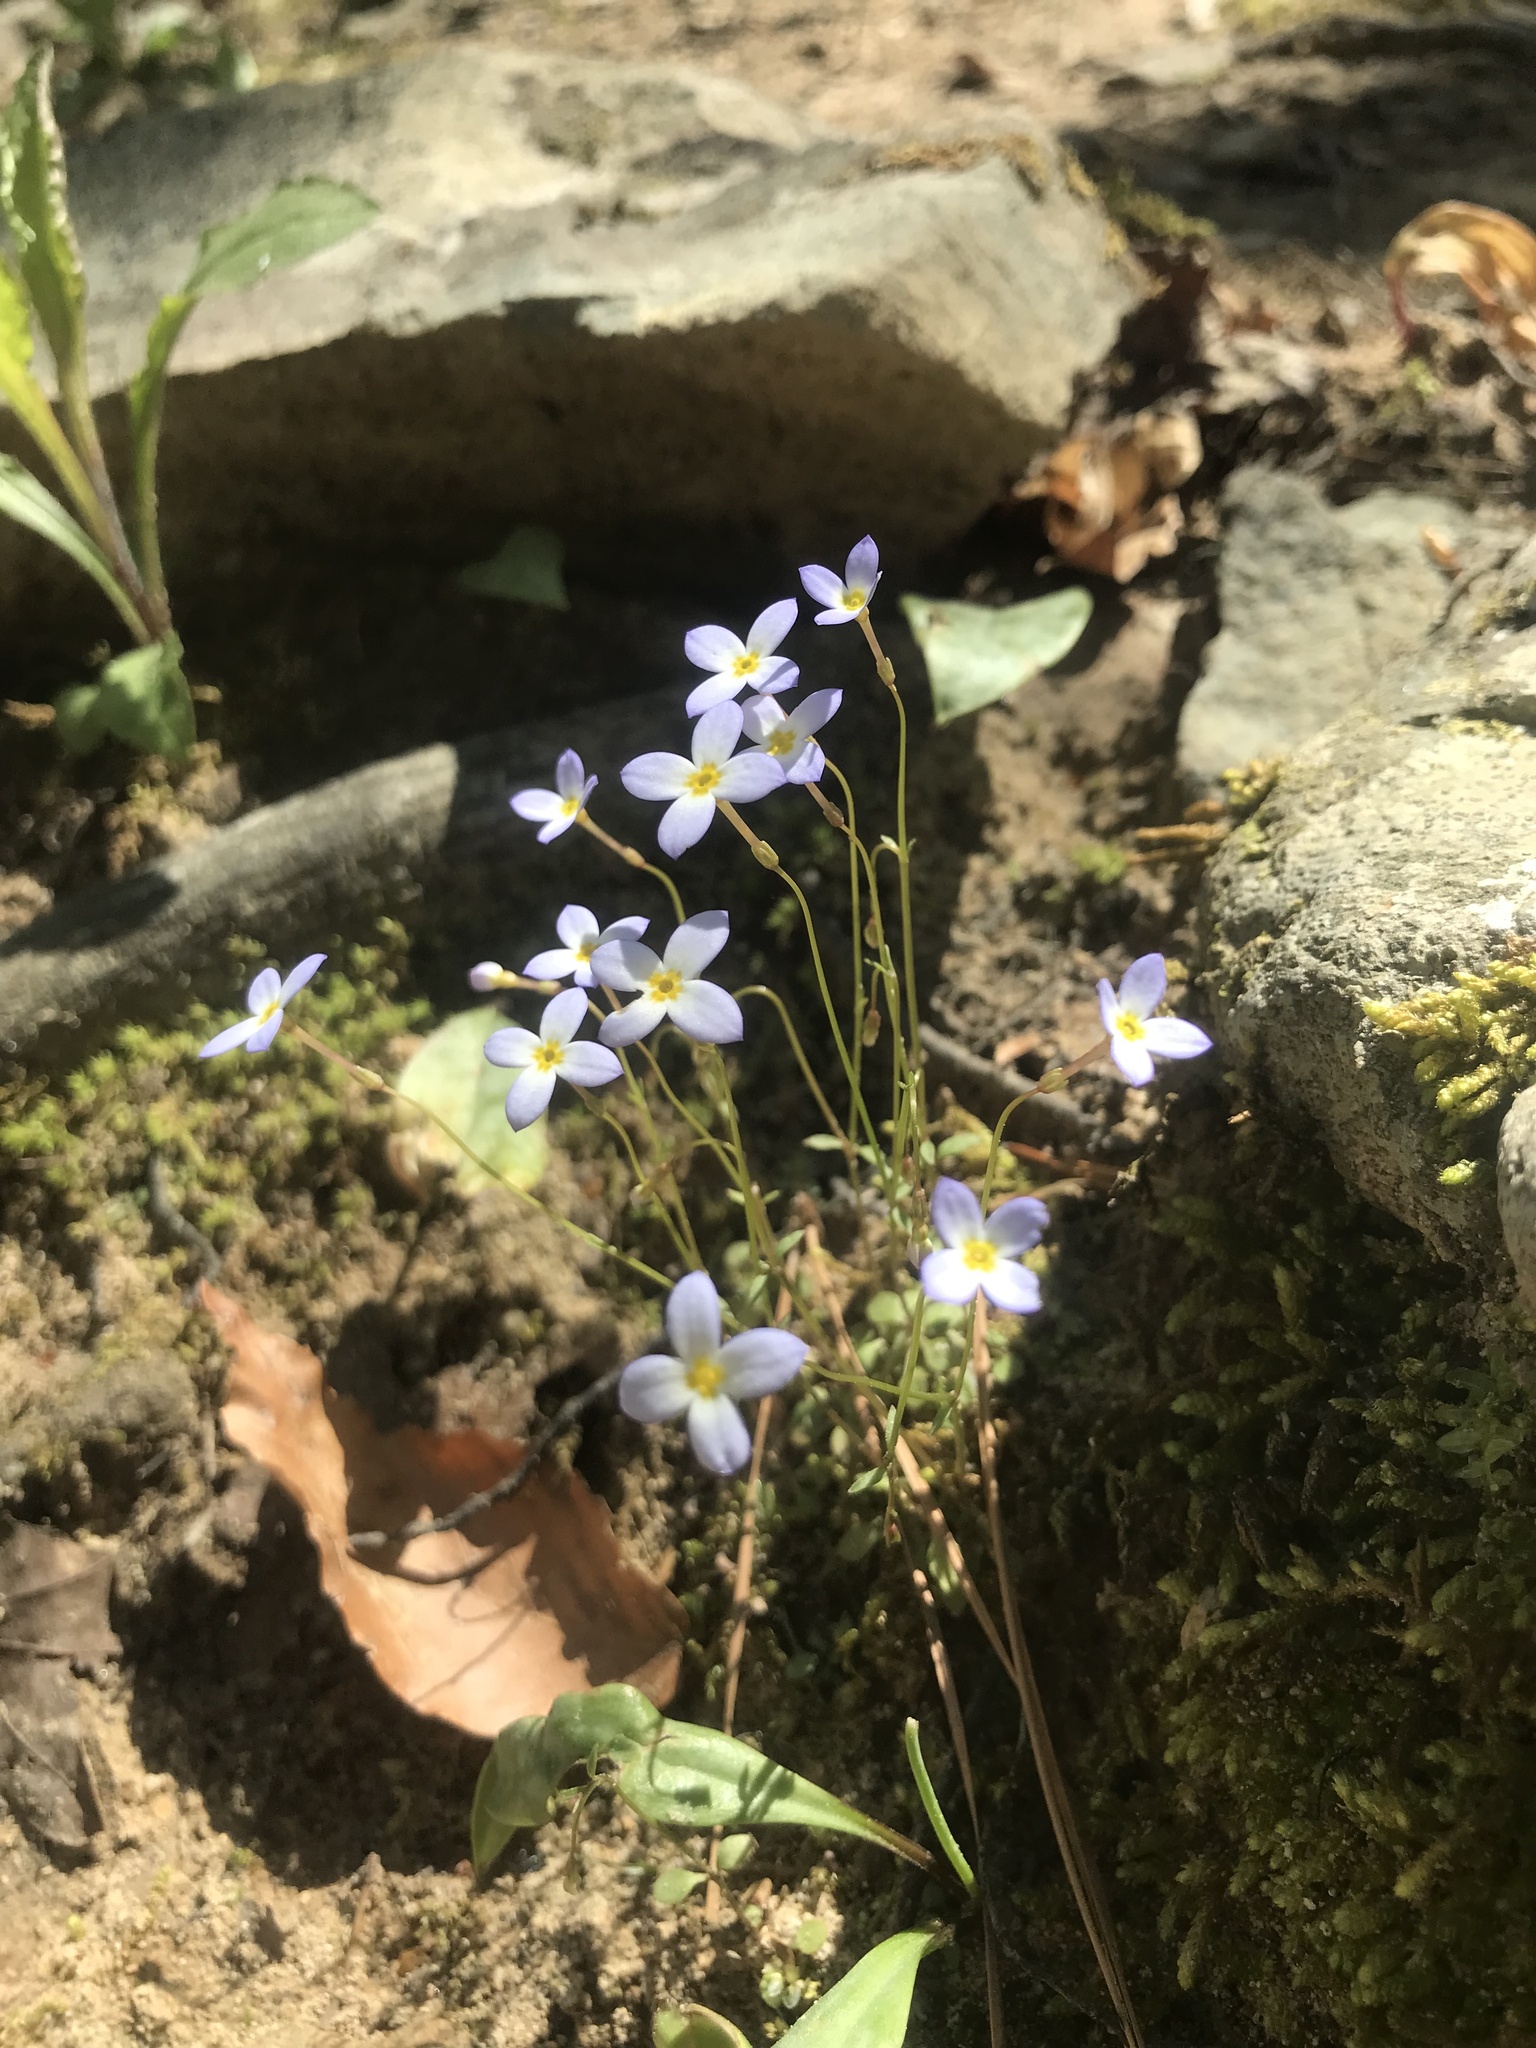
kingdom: Plantae
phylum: Tracheophyta
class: Magnoliopsida
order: Gentianales
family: Rubiaceae
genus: Houstonia
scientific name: Houstonia caerulea
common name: Bluets
